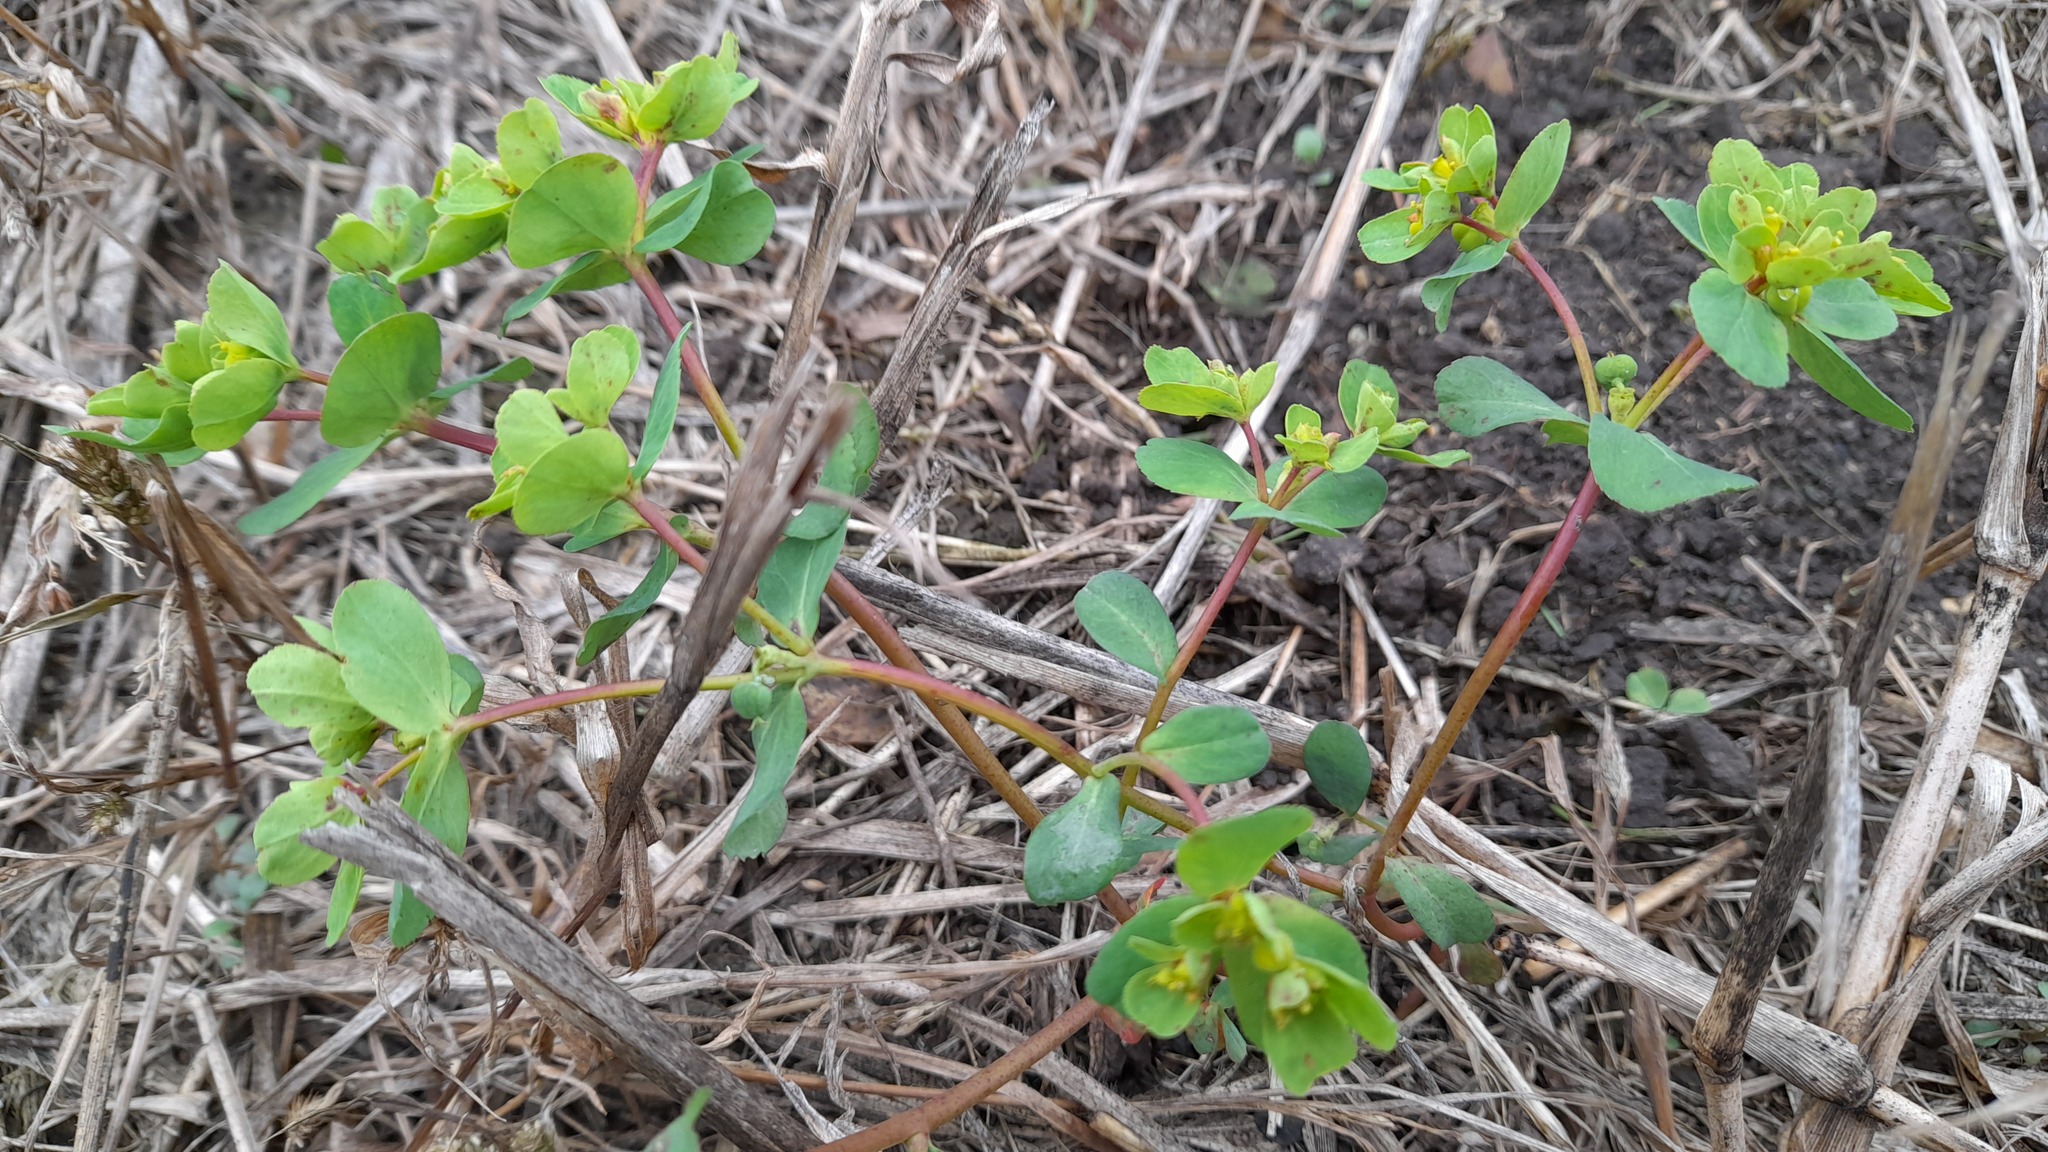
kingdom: Plantae
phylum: Tracheophyta
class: Magnoliopsida
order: Malpighiales
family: Euphorbiaceae
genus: Euphorbia
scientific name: Euphorbia helioscopia
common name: Sun spurge
